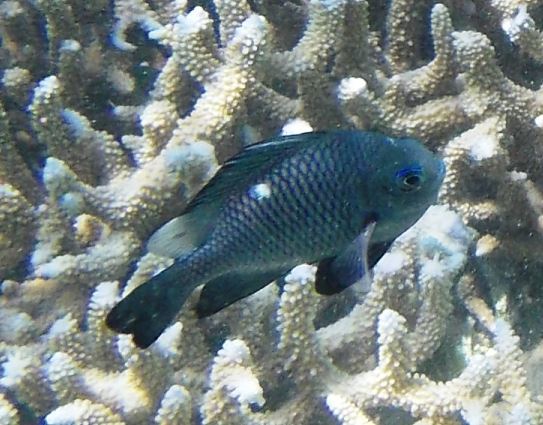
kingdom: Animalia
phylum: Chordata
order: Perciformes
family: Pomacentridae
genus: Dascyllus
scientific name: Dascyllus trimaculatus
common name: Threespot dascyllus
